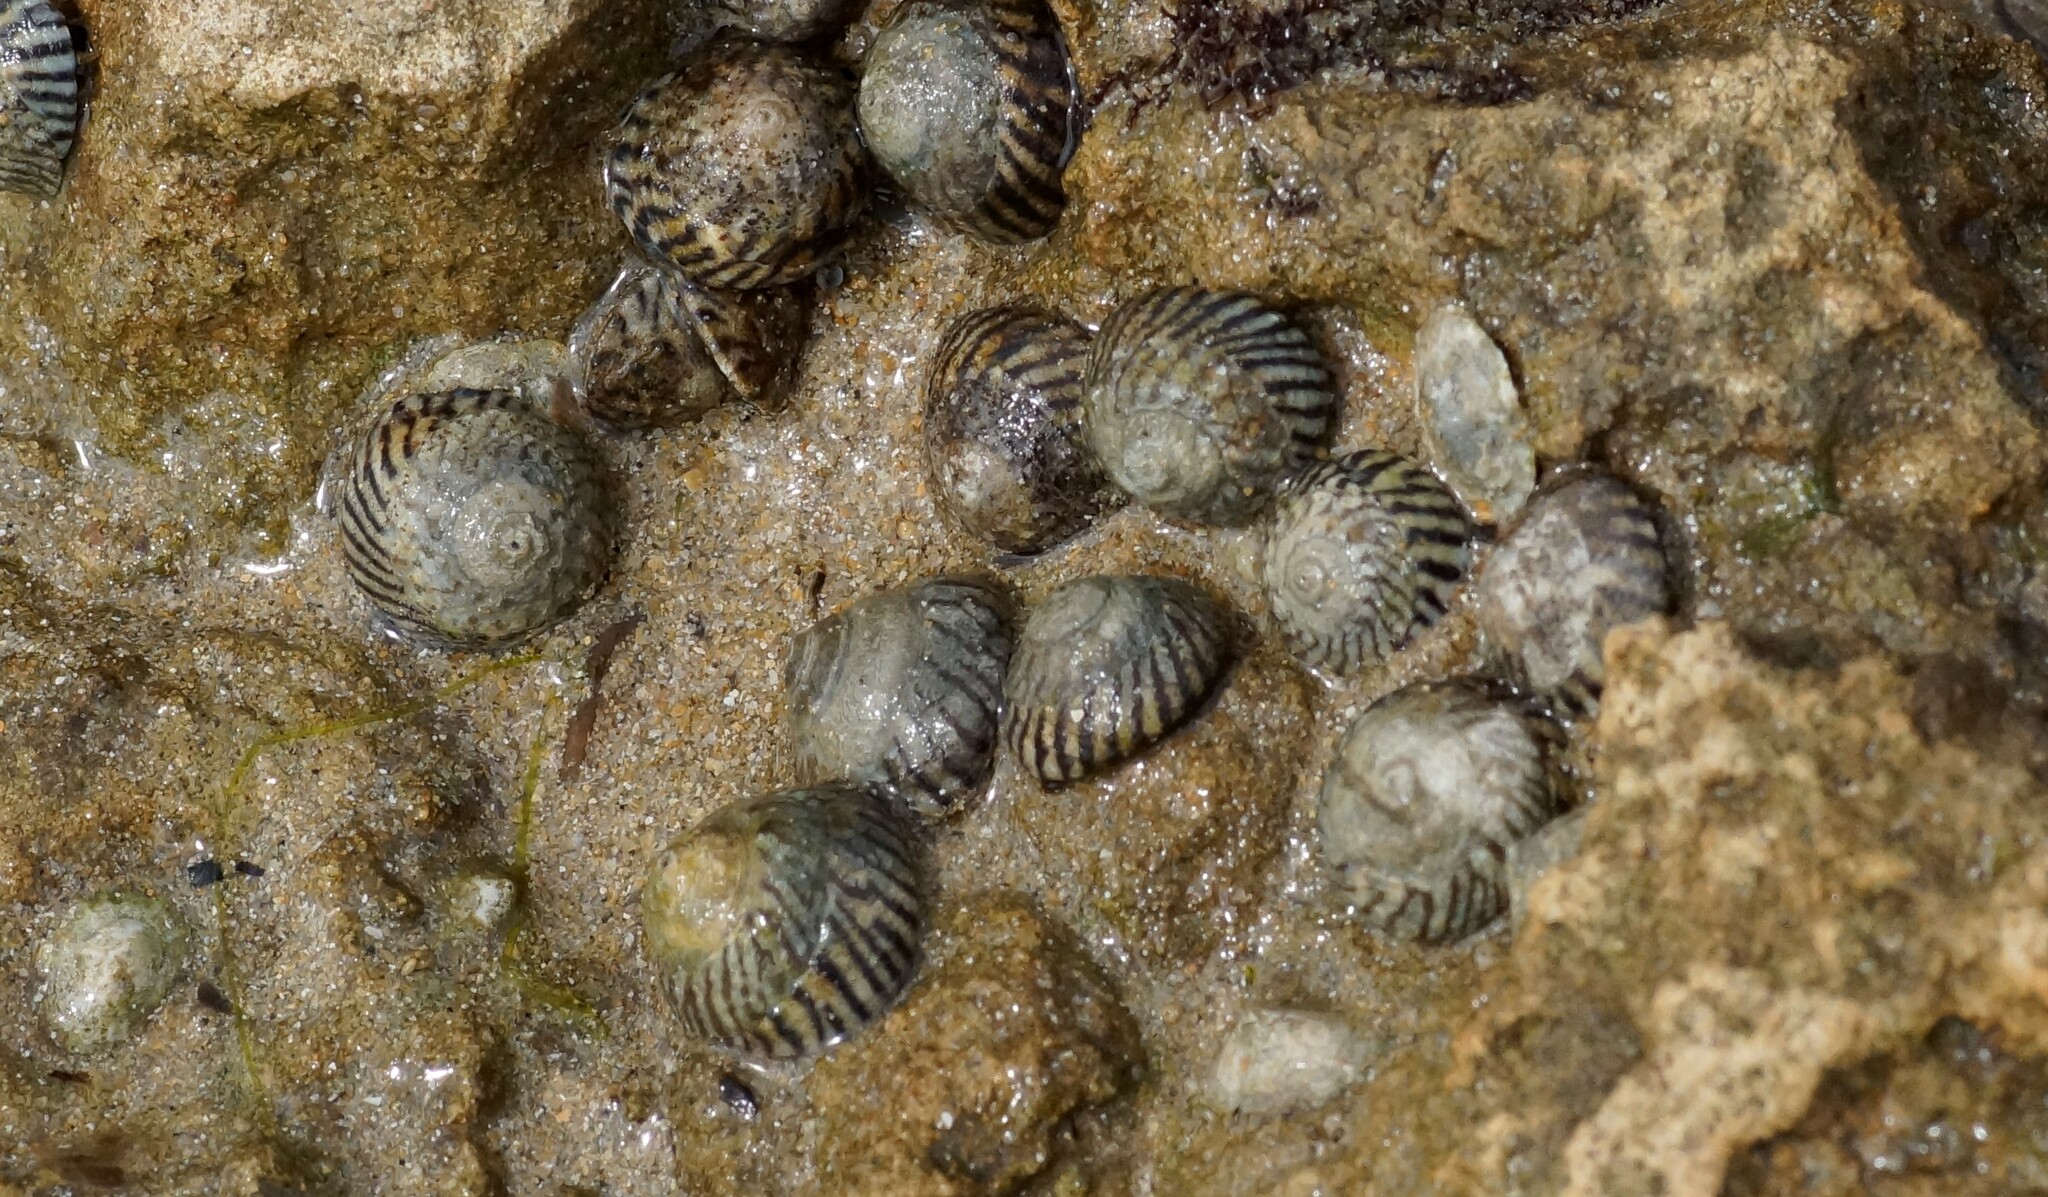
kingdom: Animalia
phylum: Mollusca
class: Gastropoda
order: Littorinimorpha
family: Littorinidae
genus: Bembicium
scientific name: Bembicium nanum
